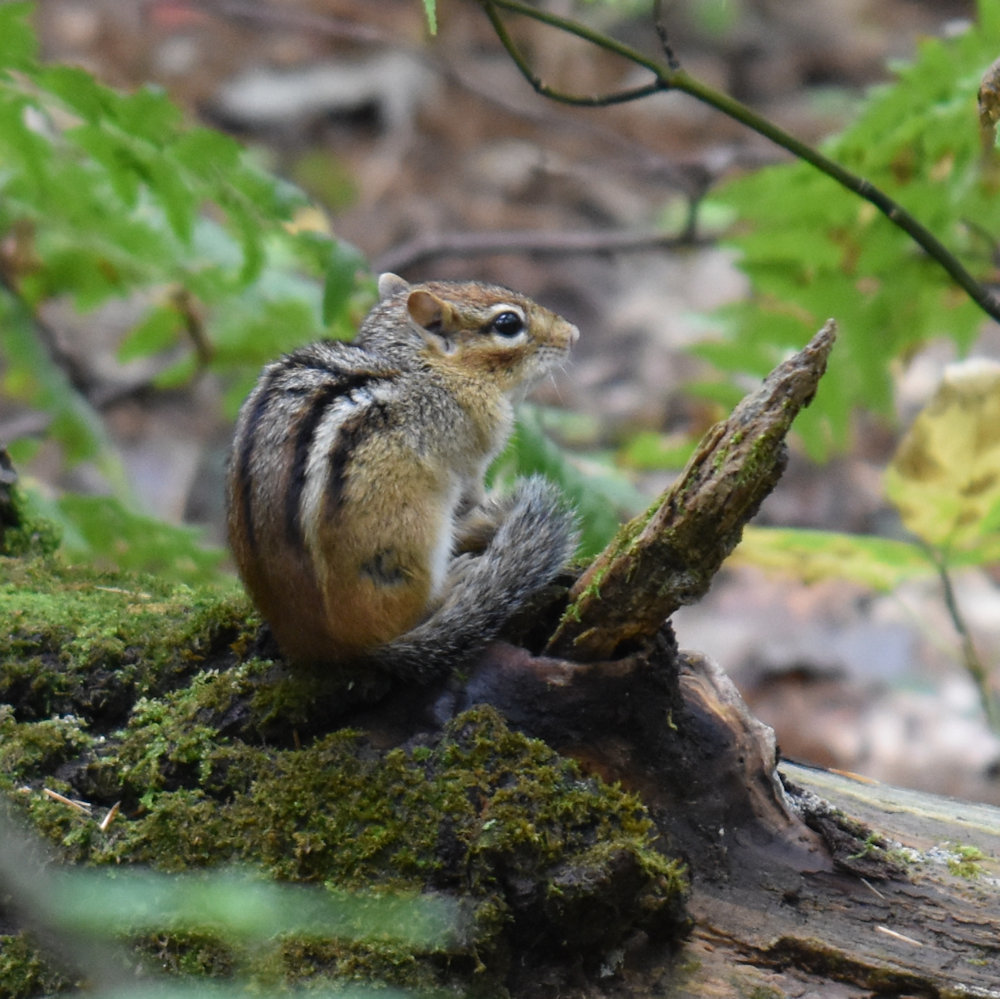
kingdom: Animalia
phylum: Chordata
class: Mammalia
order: Rodentia
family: Sciuridae
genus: Tamias
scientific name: Tamias striatus
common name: Eastern chipmunk
